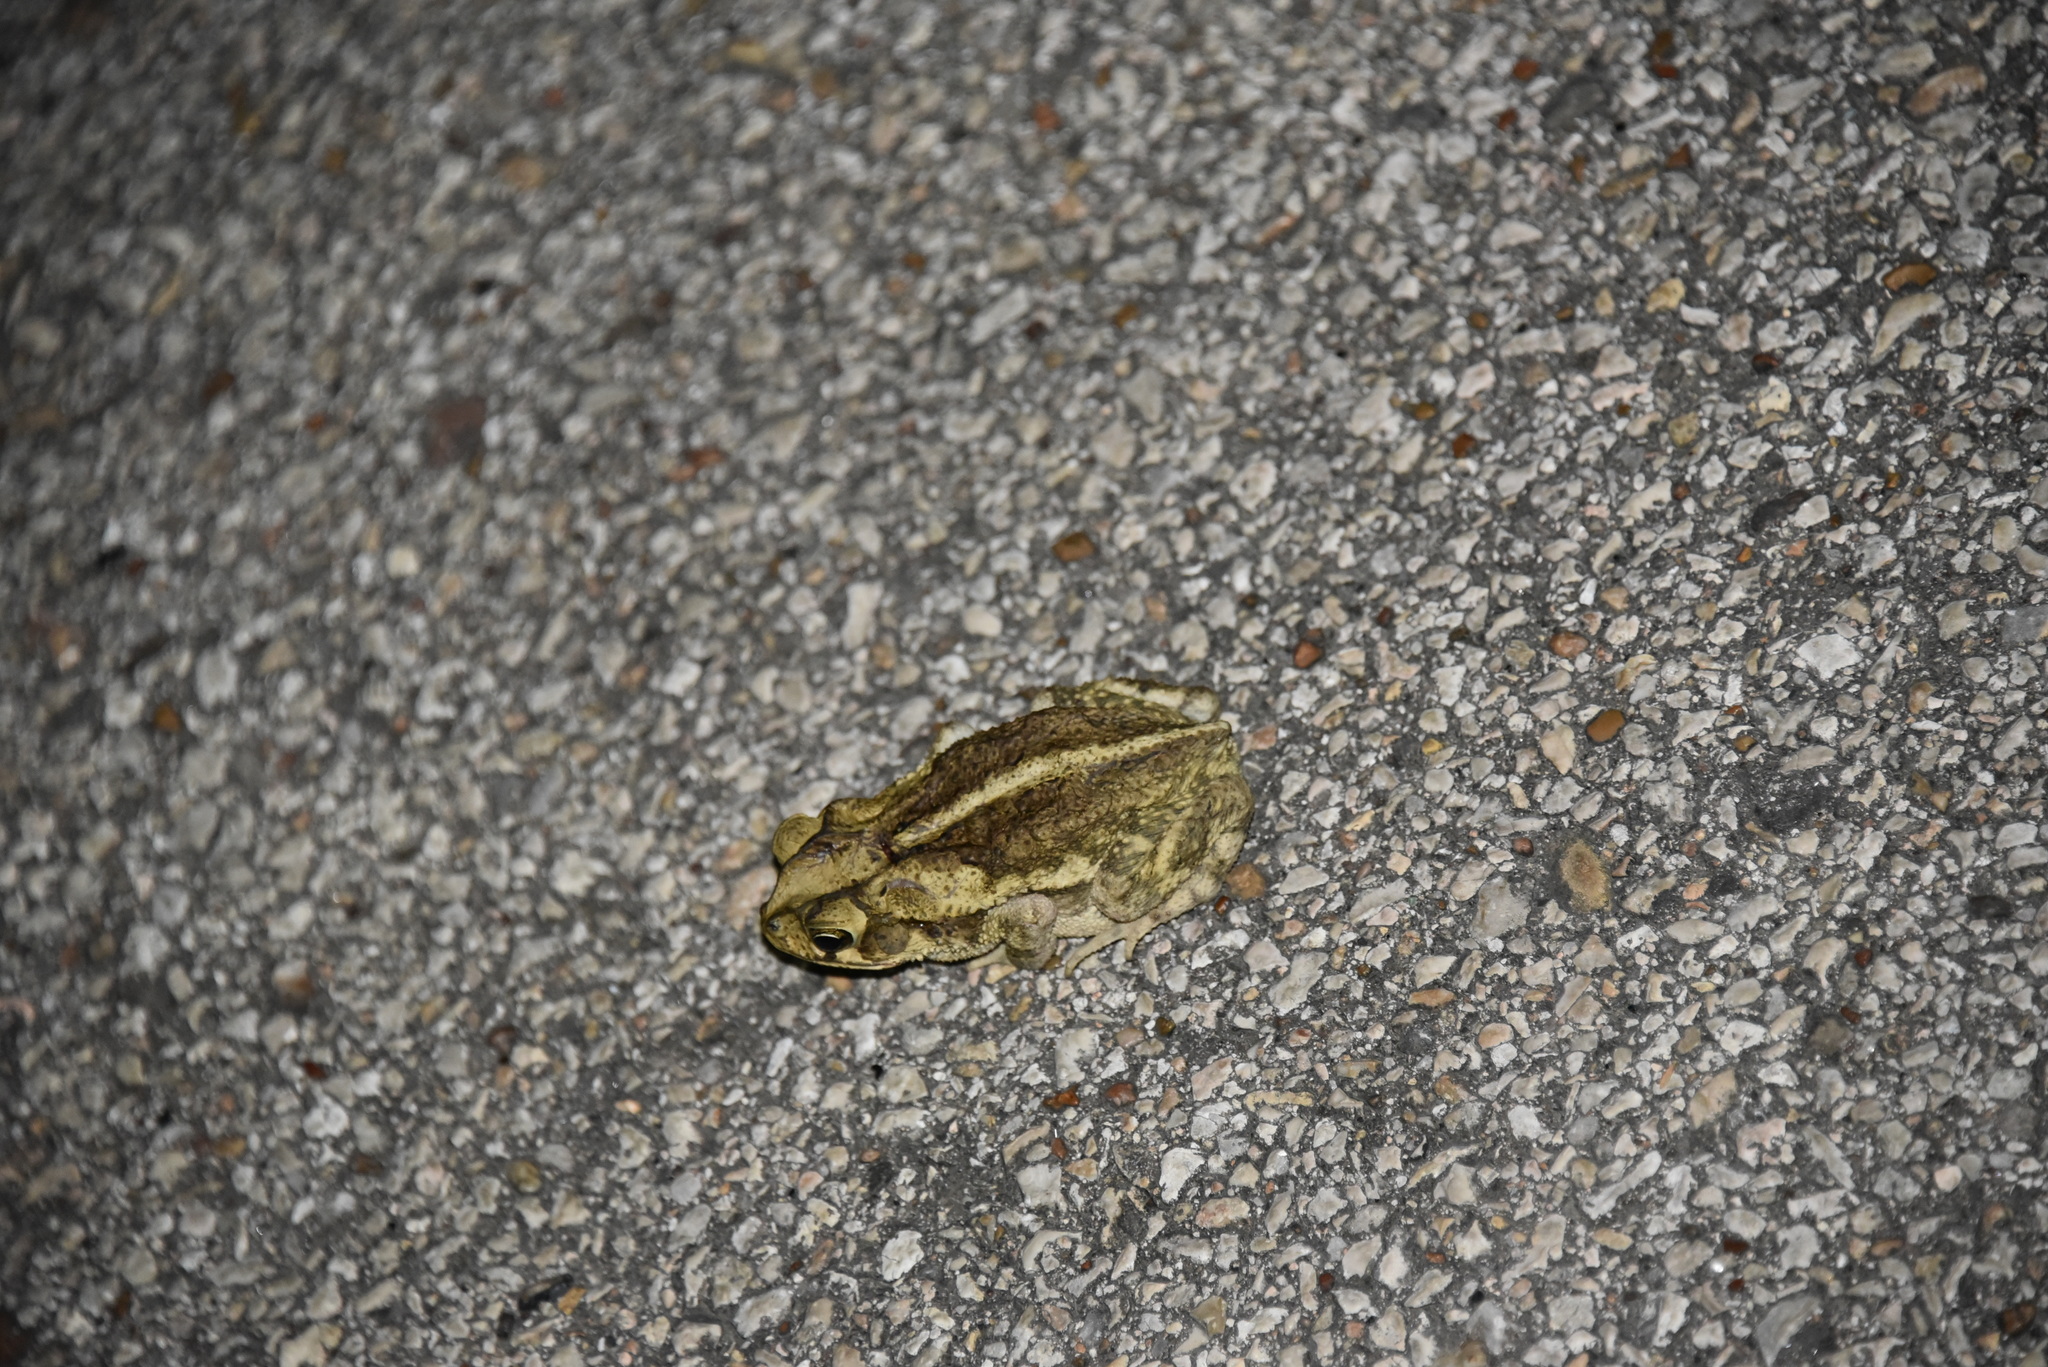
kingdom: Animalia
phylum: Chordata
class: Amphibia
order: Anura
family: Bufonidae
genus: Incilius
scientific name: Incilius nebulifer
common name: Gulf coast toad
